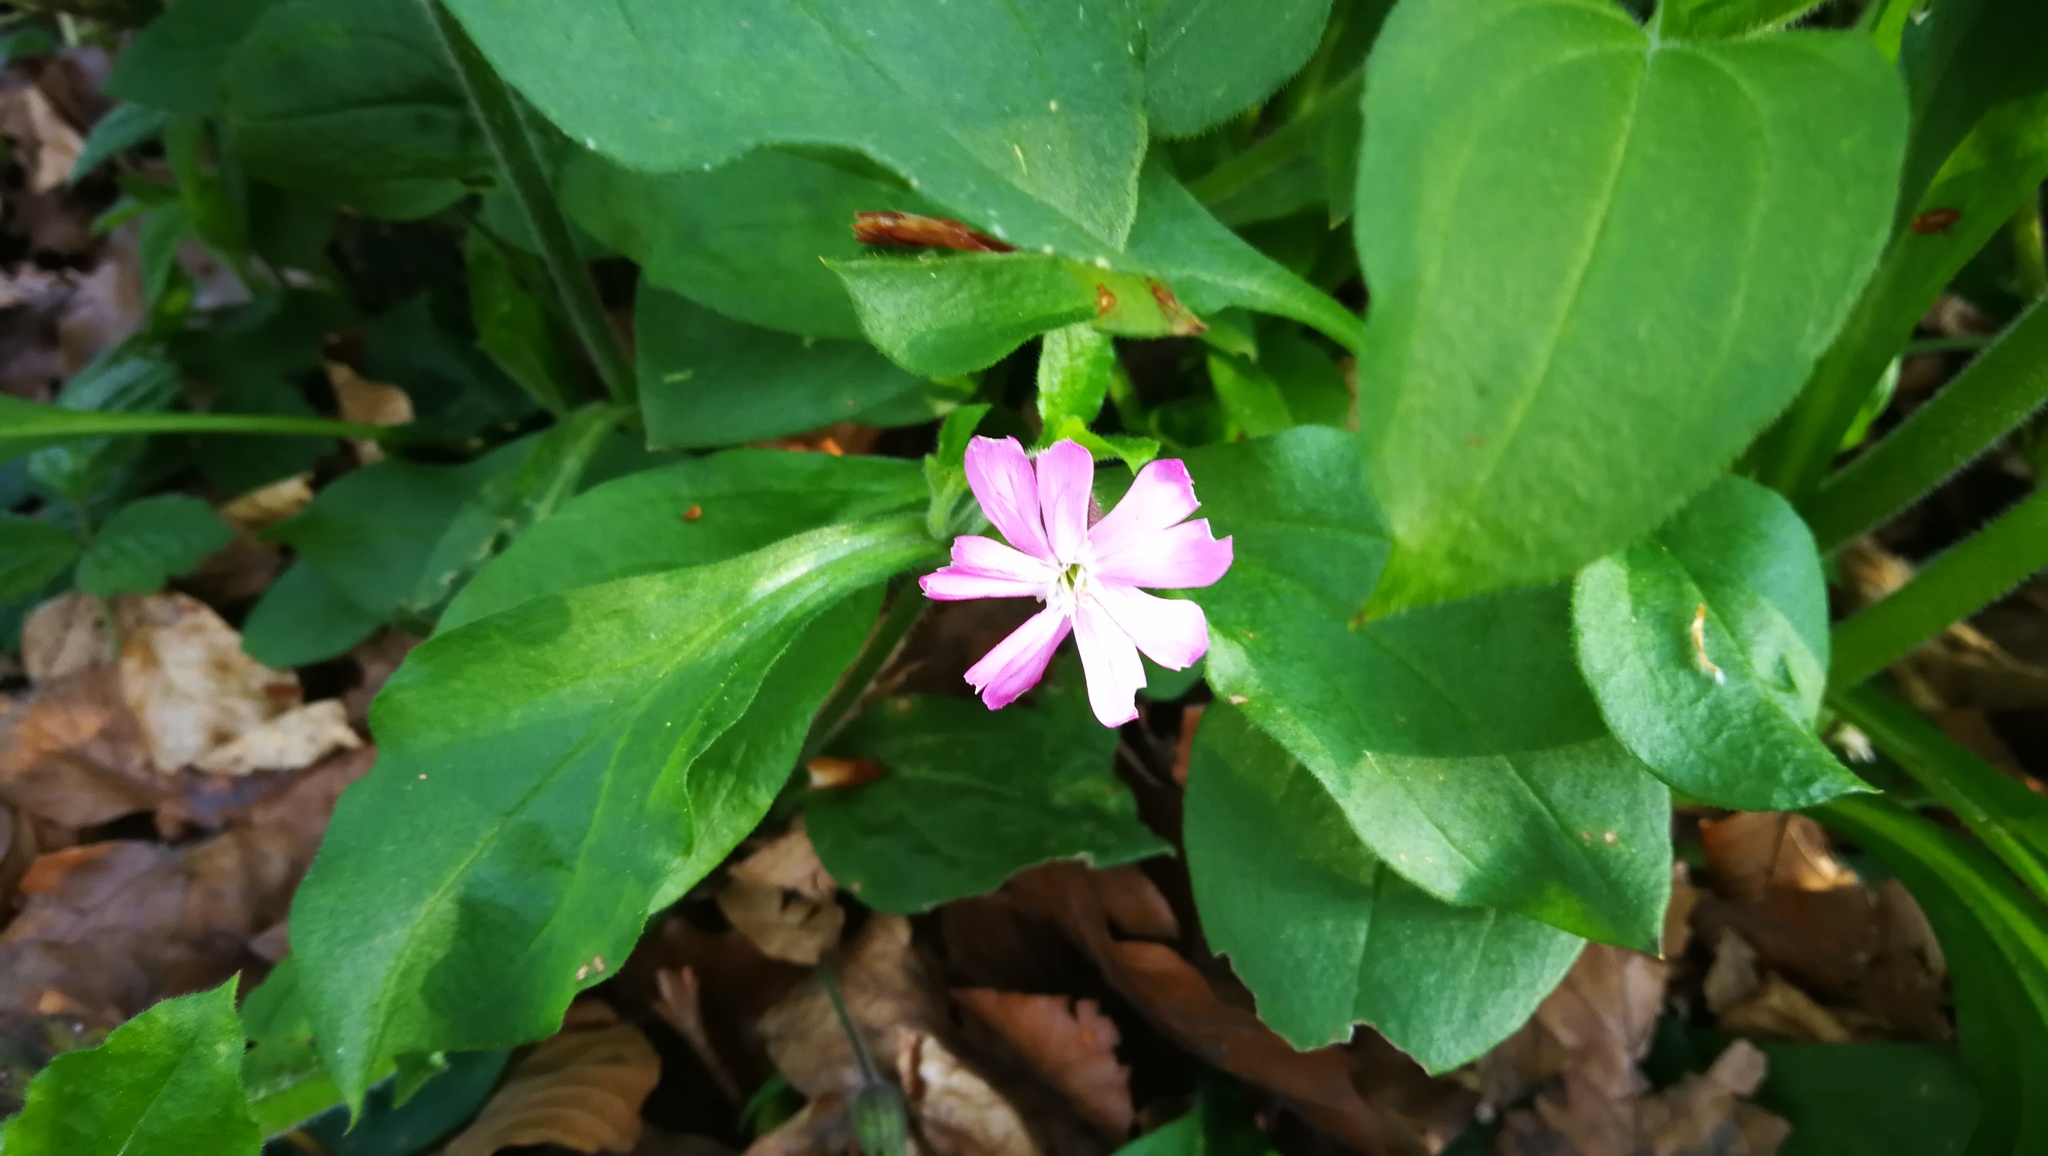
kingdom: Plantae
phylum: Tracheophyta
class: Magnoliopsida
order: Caryophyllales
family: Caryophyllaceae
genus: Silene
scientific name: Silene dioica
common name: Red campion
